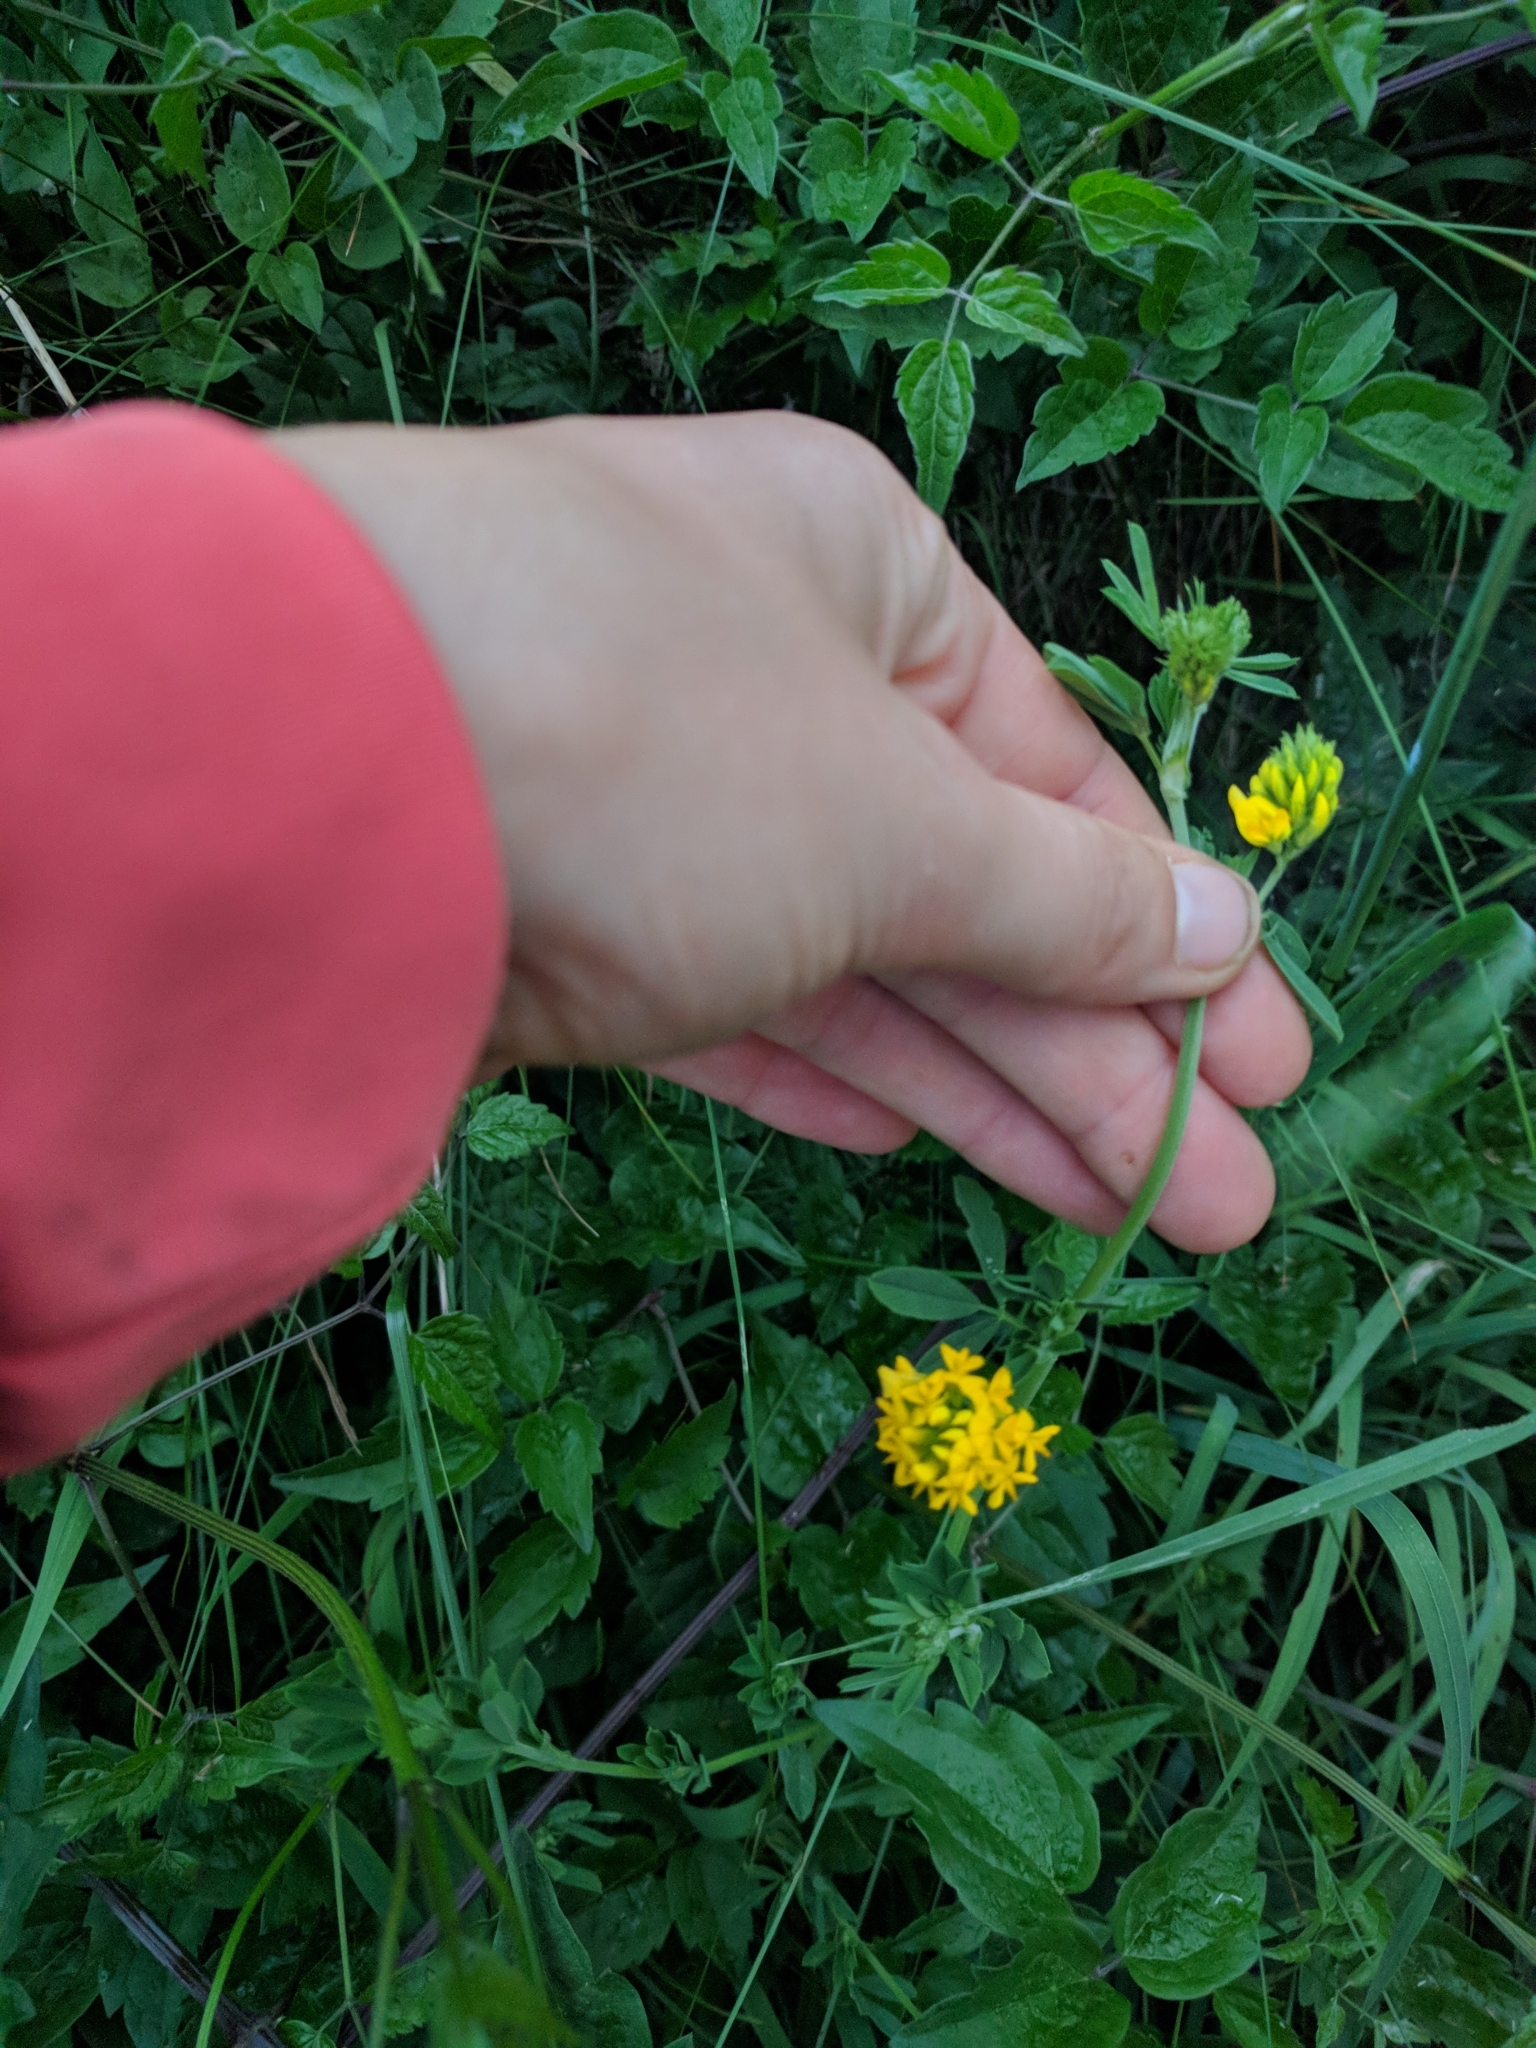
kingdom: Plantae
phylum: Tracheophyta
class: Magnoliopsida
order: Fabales
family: Fabaceae
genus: Medicago
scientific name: Medicago falcata
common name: Sickle medick
